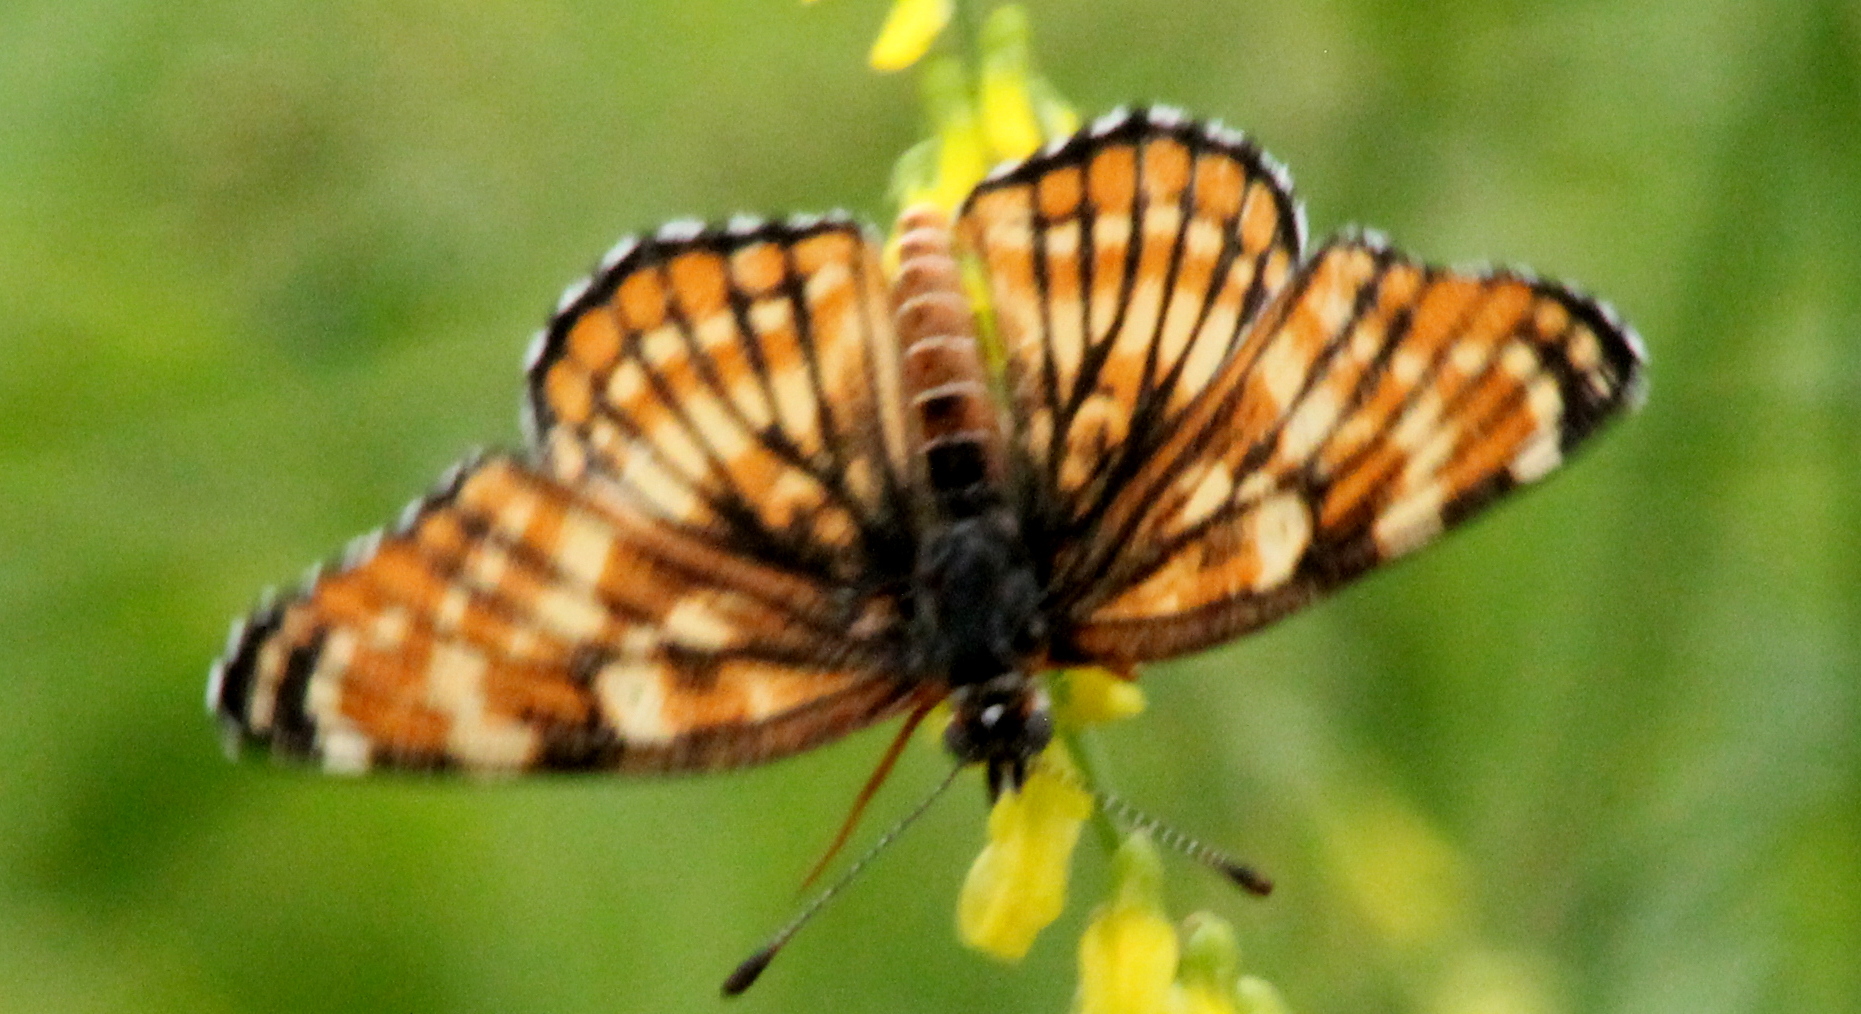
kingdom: Animalia
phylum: Arthropoda
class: Insecta
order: Lepidoptera
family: Nymphalidae
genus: Thessalia
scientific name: Thessalia leanira
